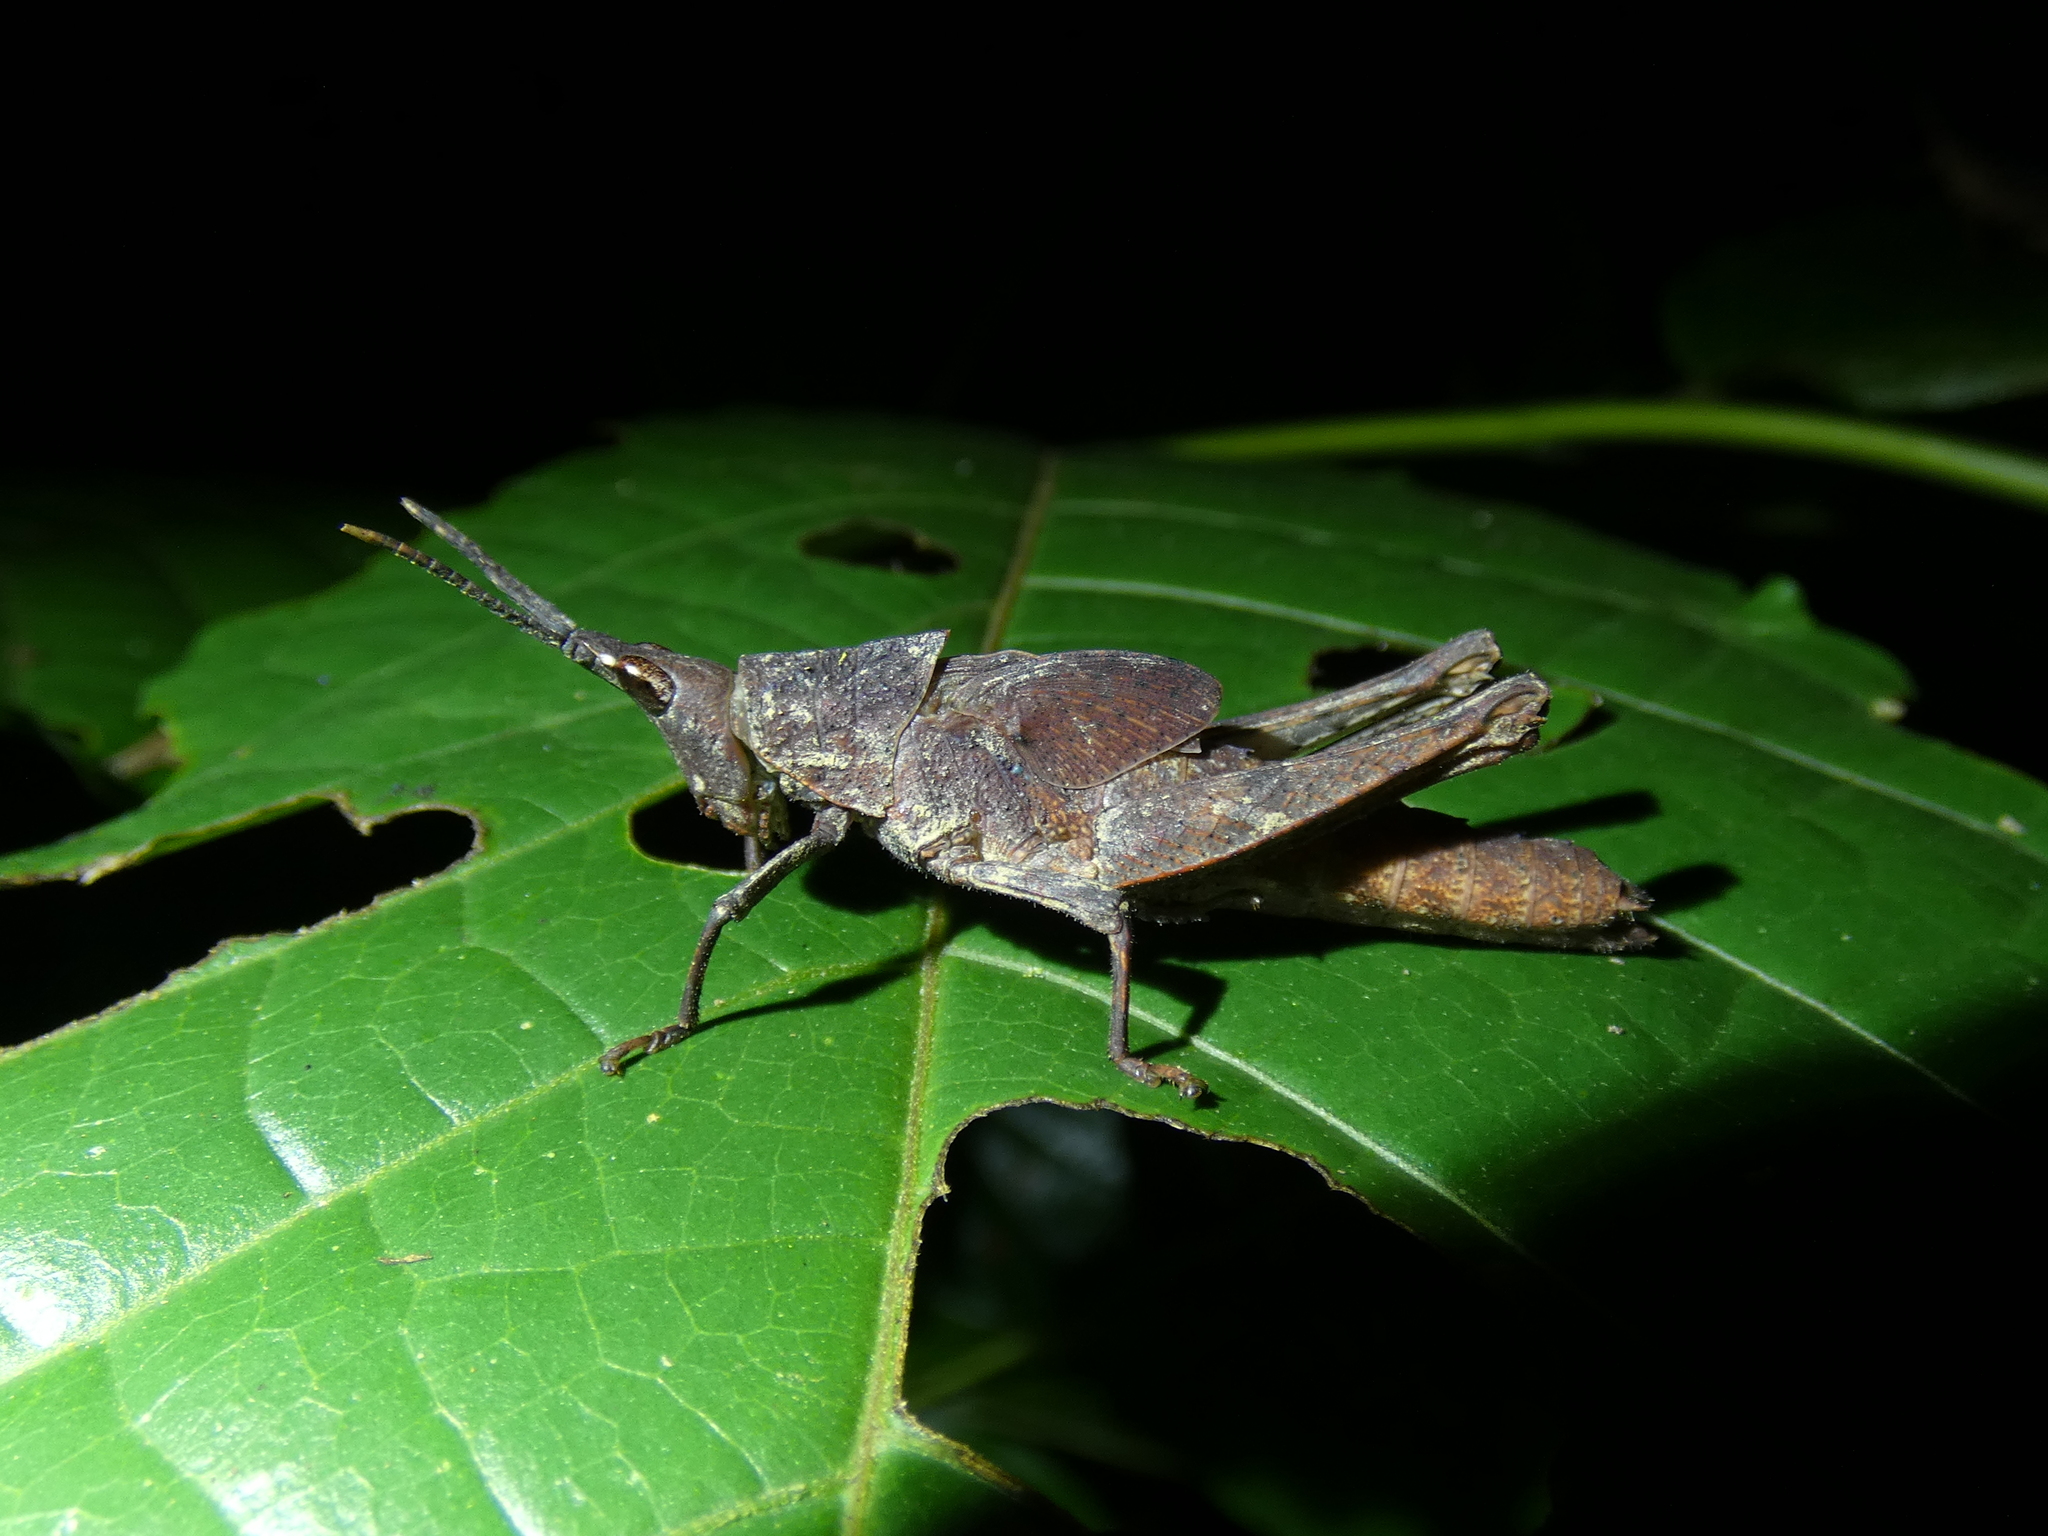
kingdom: Animalia
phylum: Arthropoda
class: Insecta
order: Orthoptera
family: Pyrgomorphidae
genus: Desmoptera
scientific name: Desmoptera truncatipennis
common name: Large forest pyrgomorph
